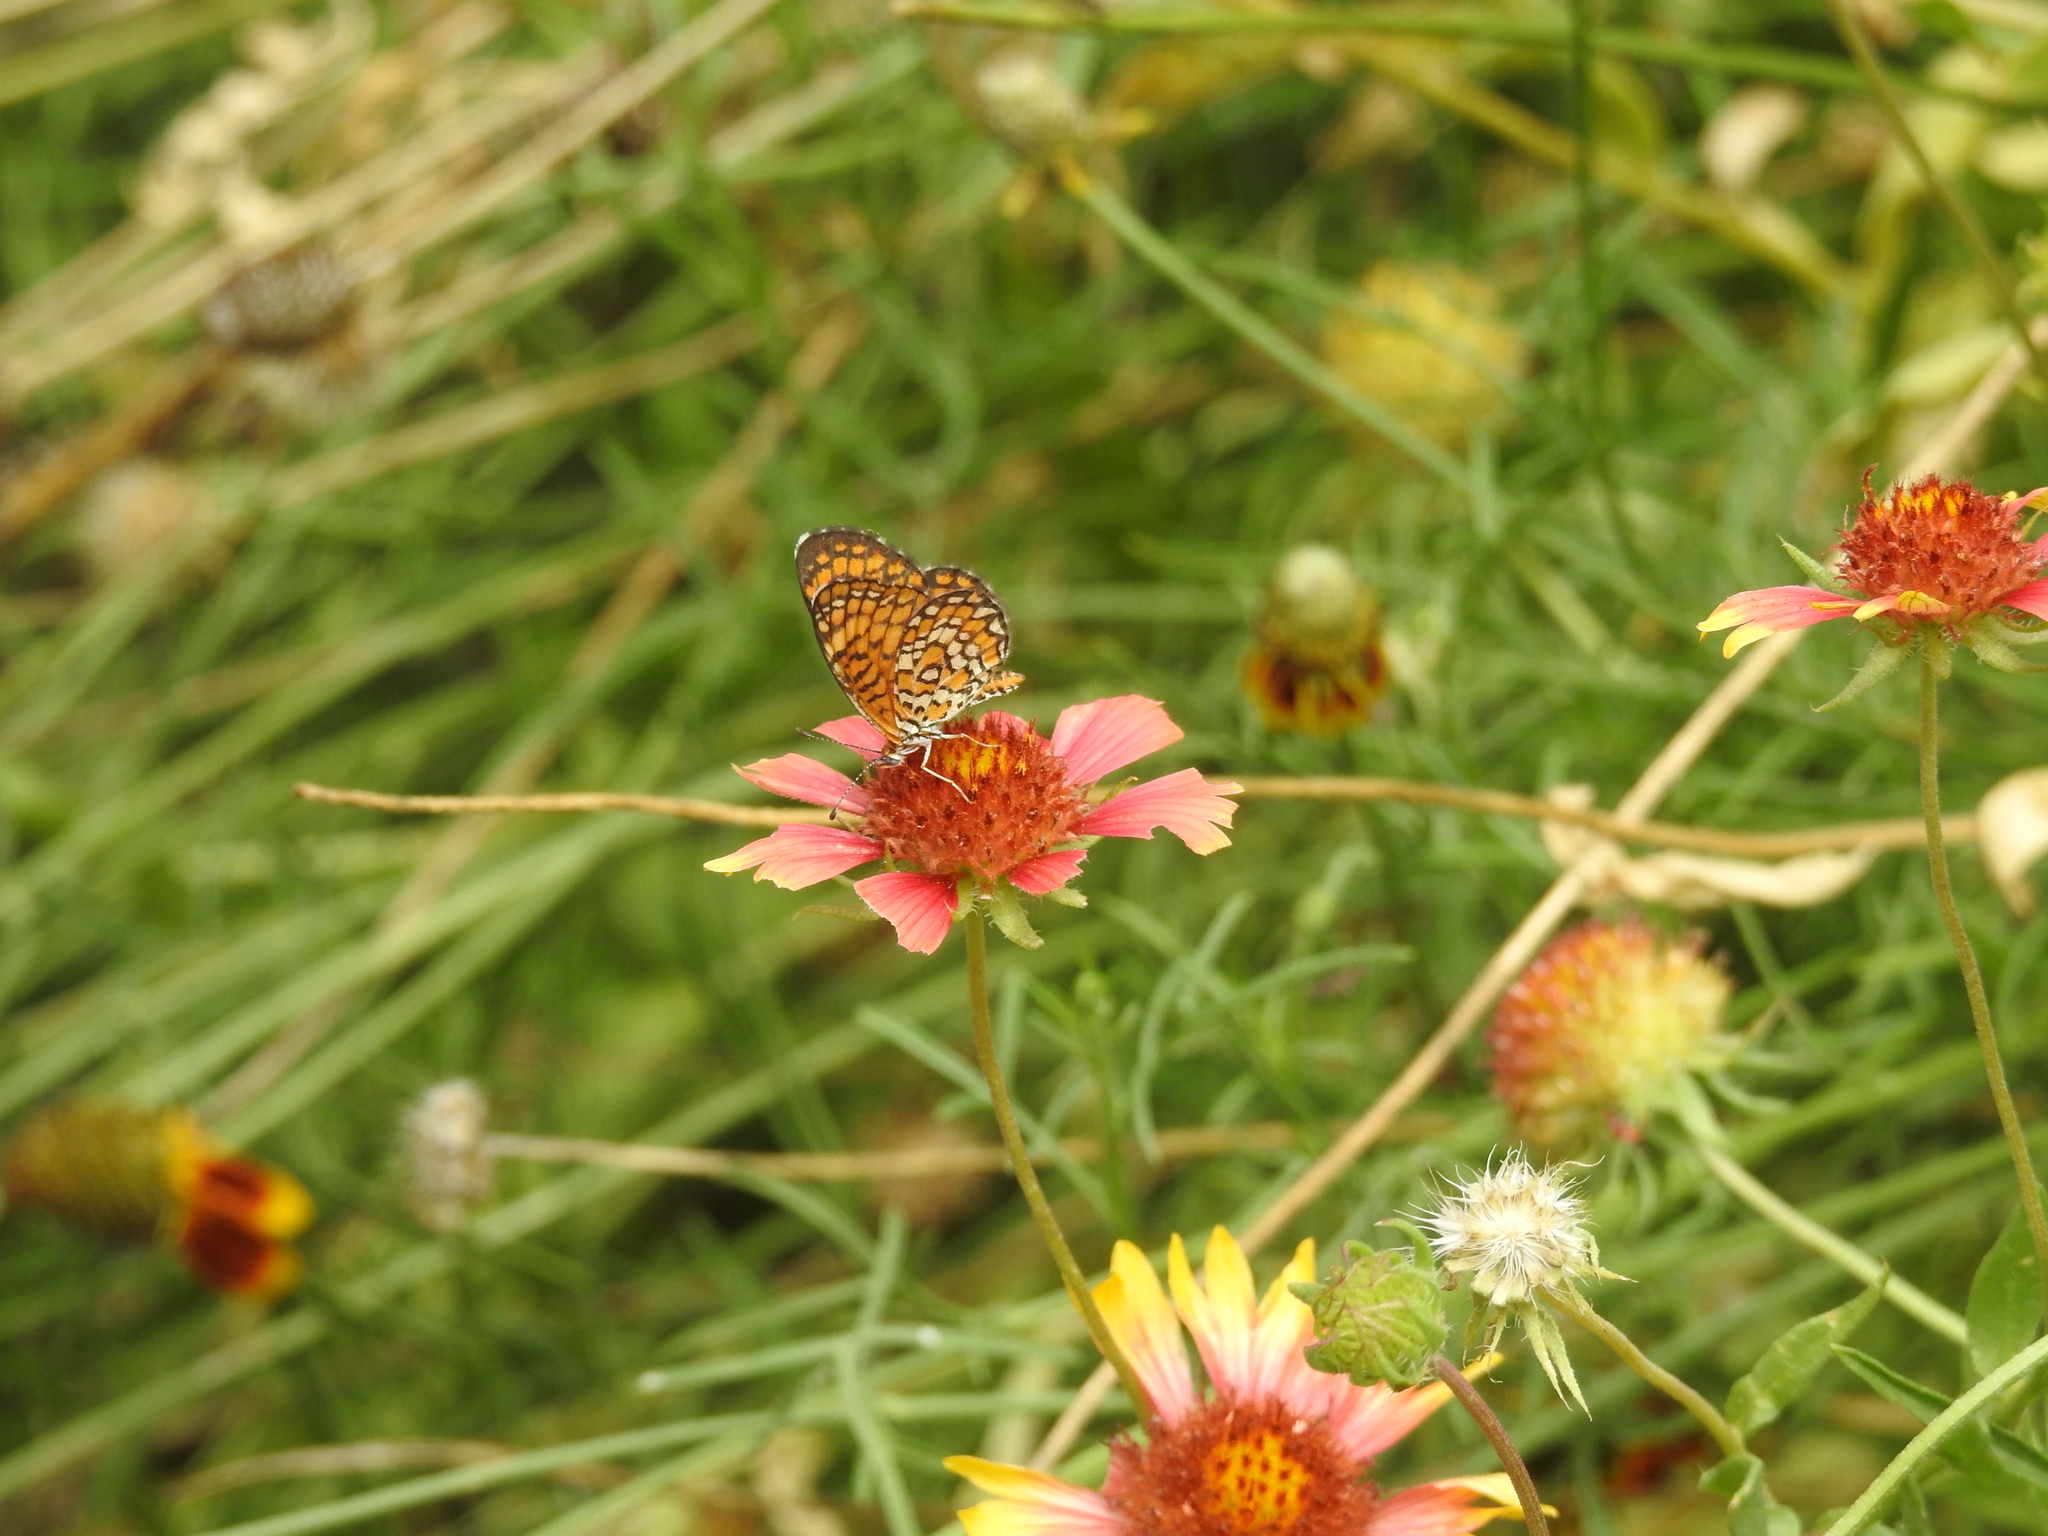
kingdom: Animalia
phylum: Arthropoda
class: Insecta
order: Lepidoptera
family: Nymphalidae
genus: Dymasia
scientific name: Dymasia dymas
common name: Tiny checkerspot
